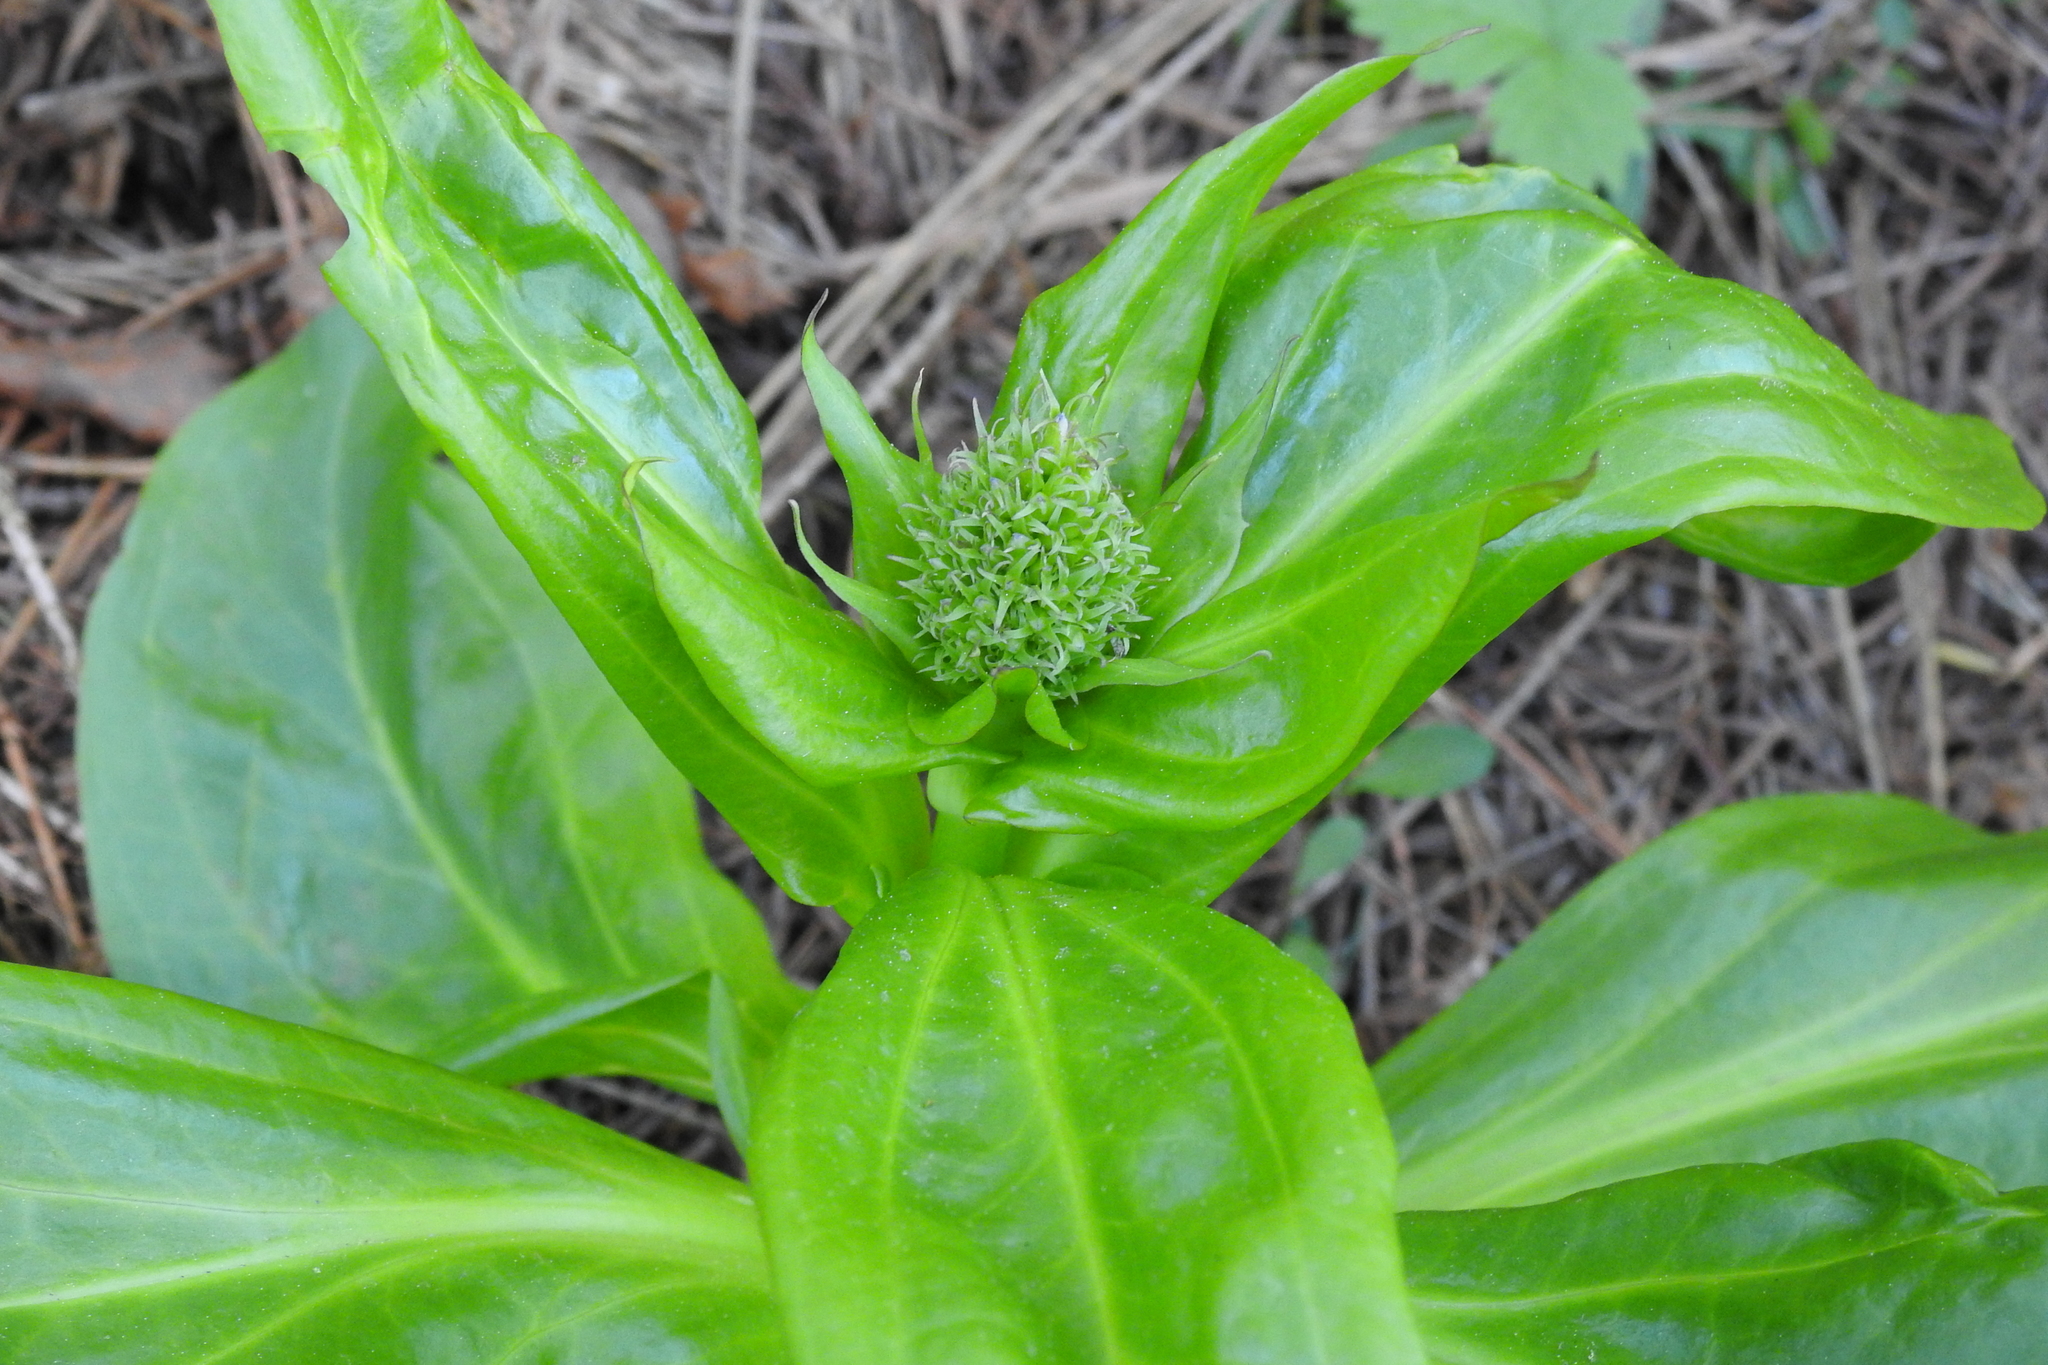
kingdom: Plantae
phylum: Tracheophyta
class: Magnoliopsida
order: Gentianales
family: Gentianaceae
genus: Frasera
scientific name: Frasera fastigiata
